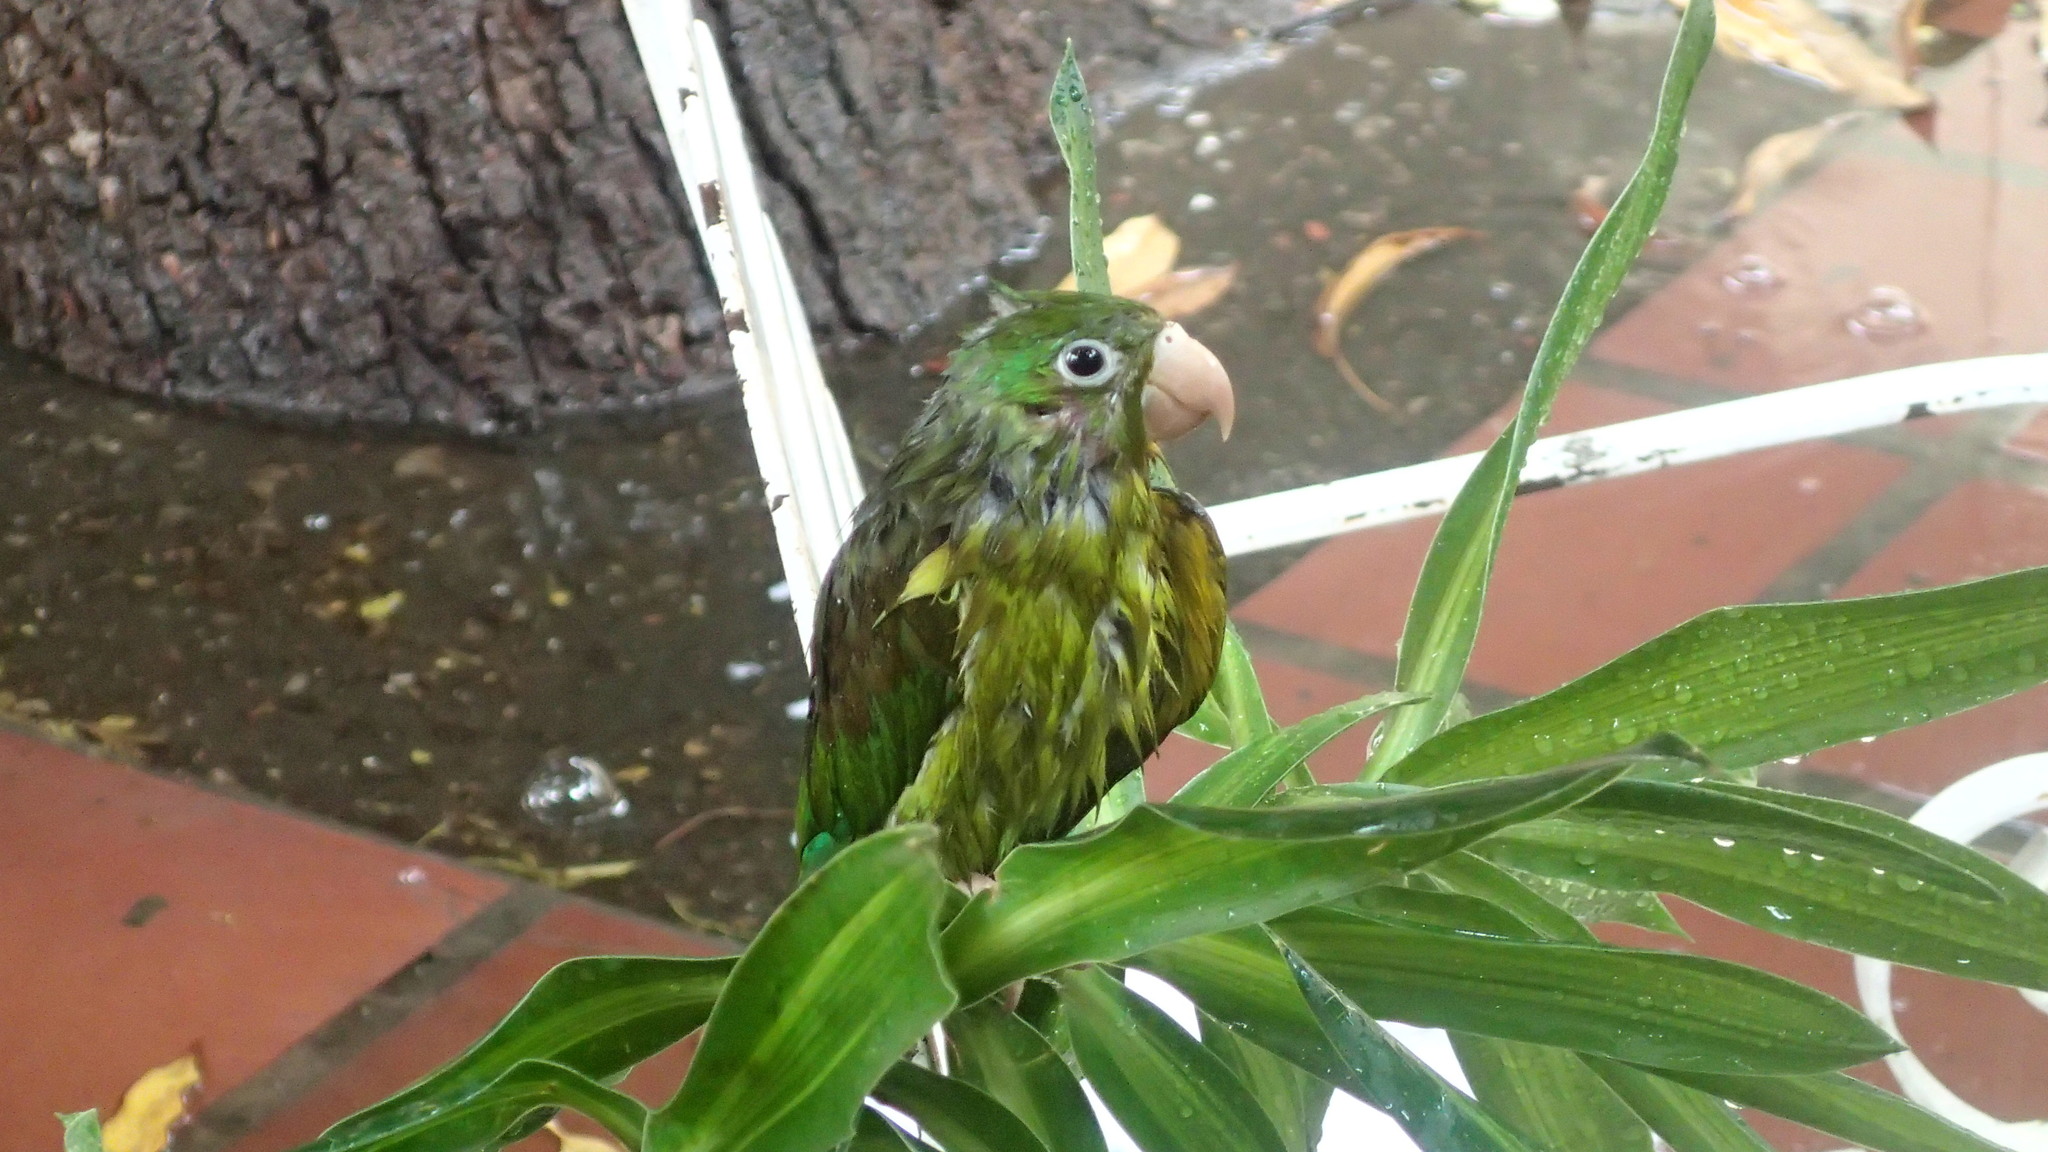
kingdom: Animalia
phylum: Chordata
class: Aves
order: Psittaciformes
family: Psittacidae
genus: Brotogeris
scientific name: Brotogeris jugularis
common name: Orange-chinned parakeet
